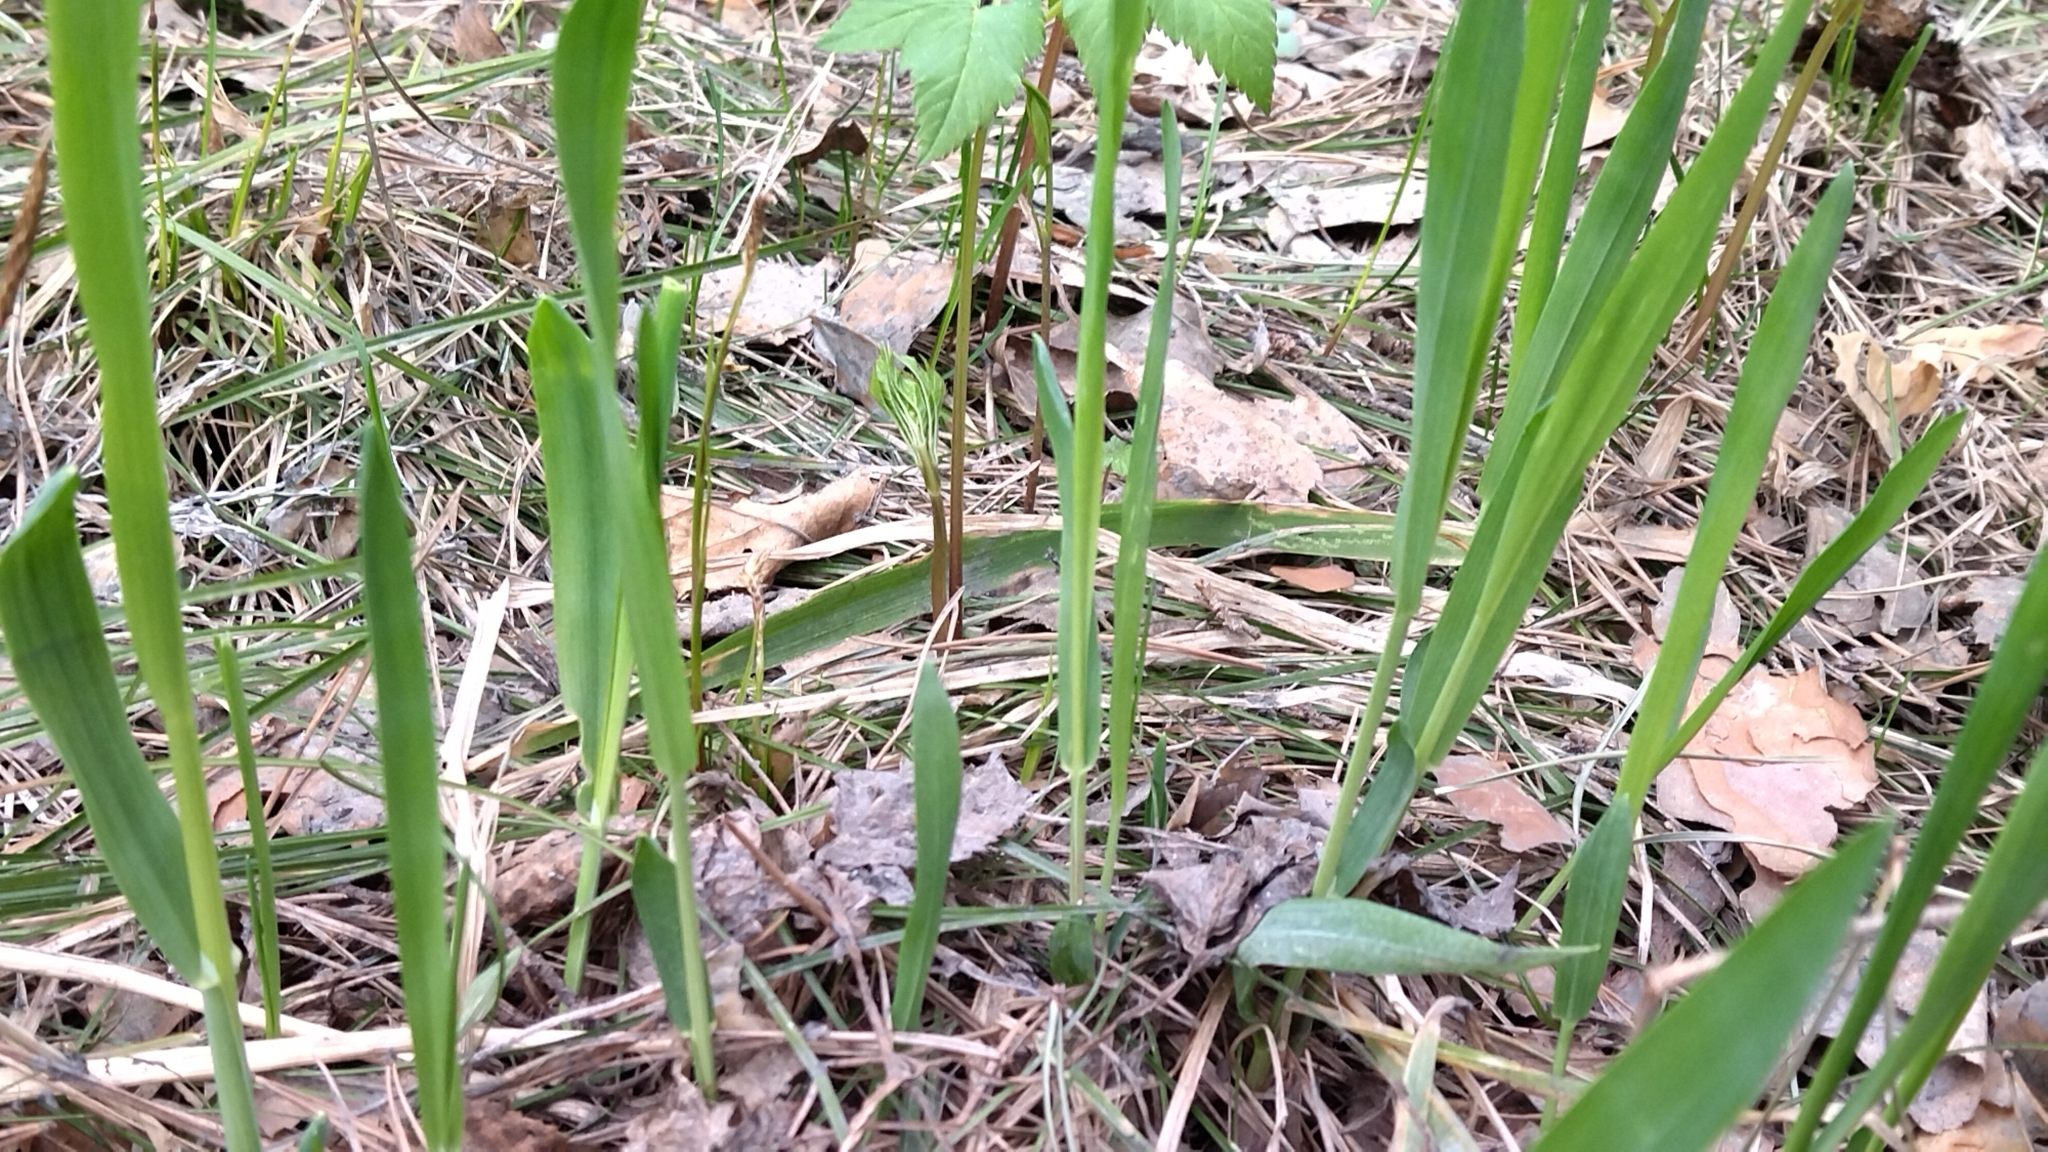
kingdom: Plantae
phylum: Tracheophyta
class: Liliopsida
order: Poales
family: Poaceae
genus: Milium
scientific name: Milium effusum
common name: Wood millet
